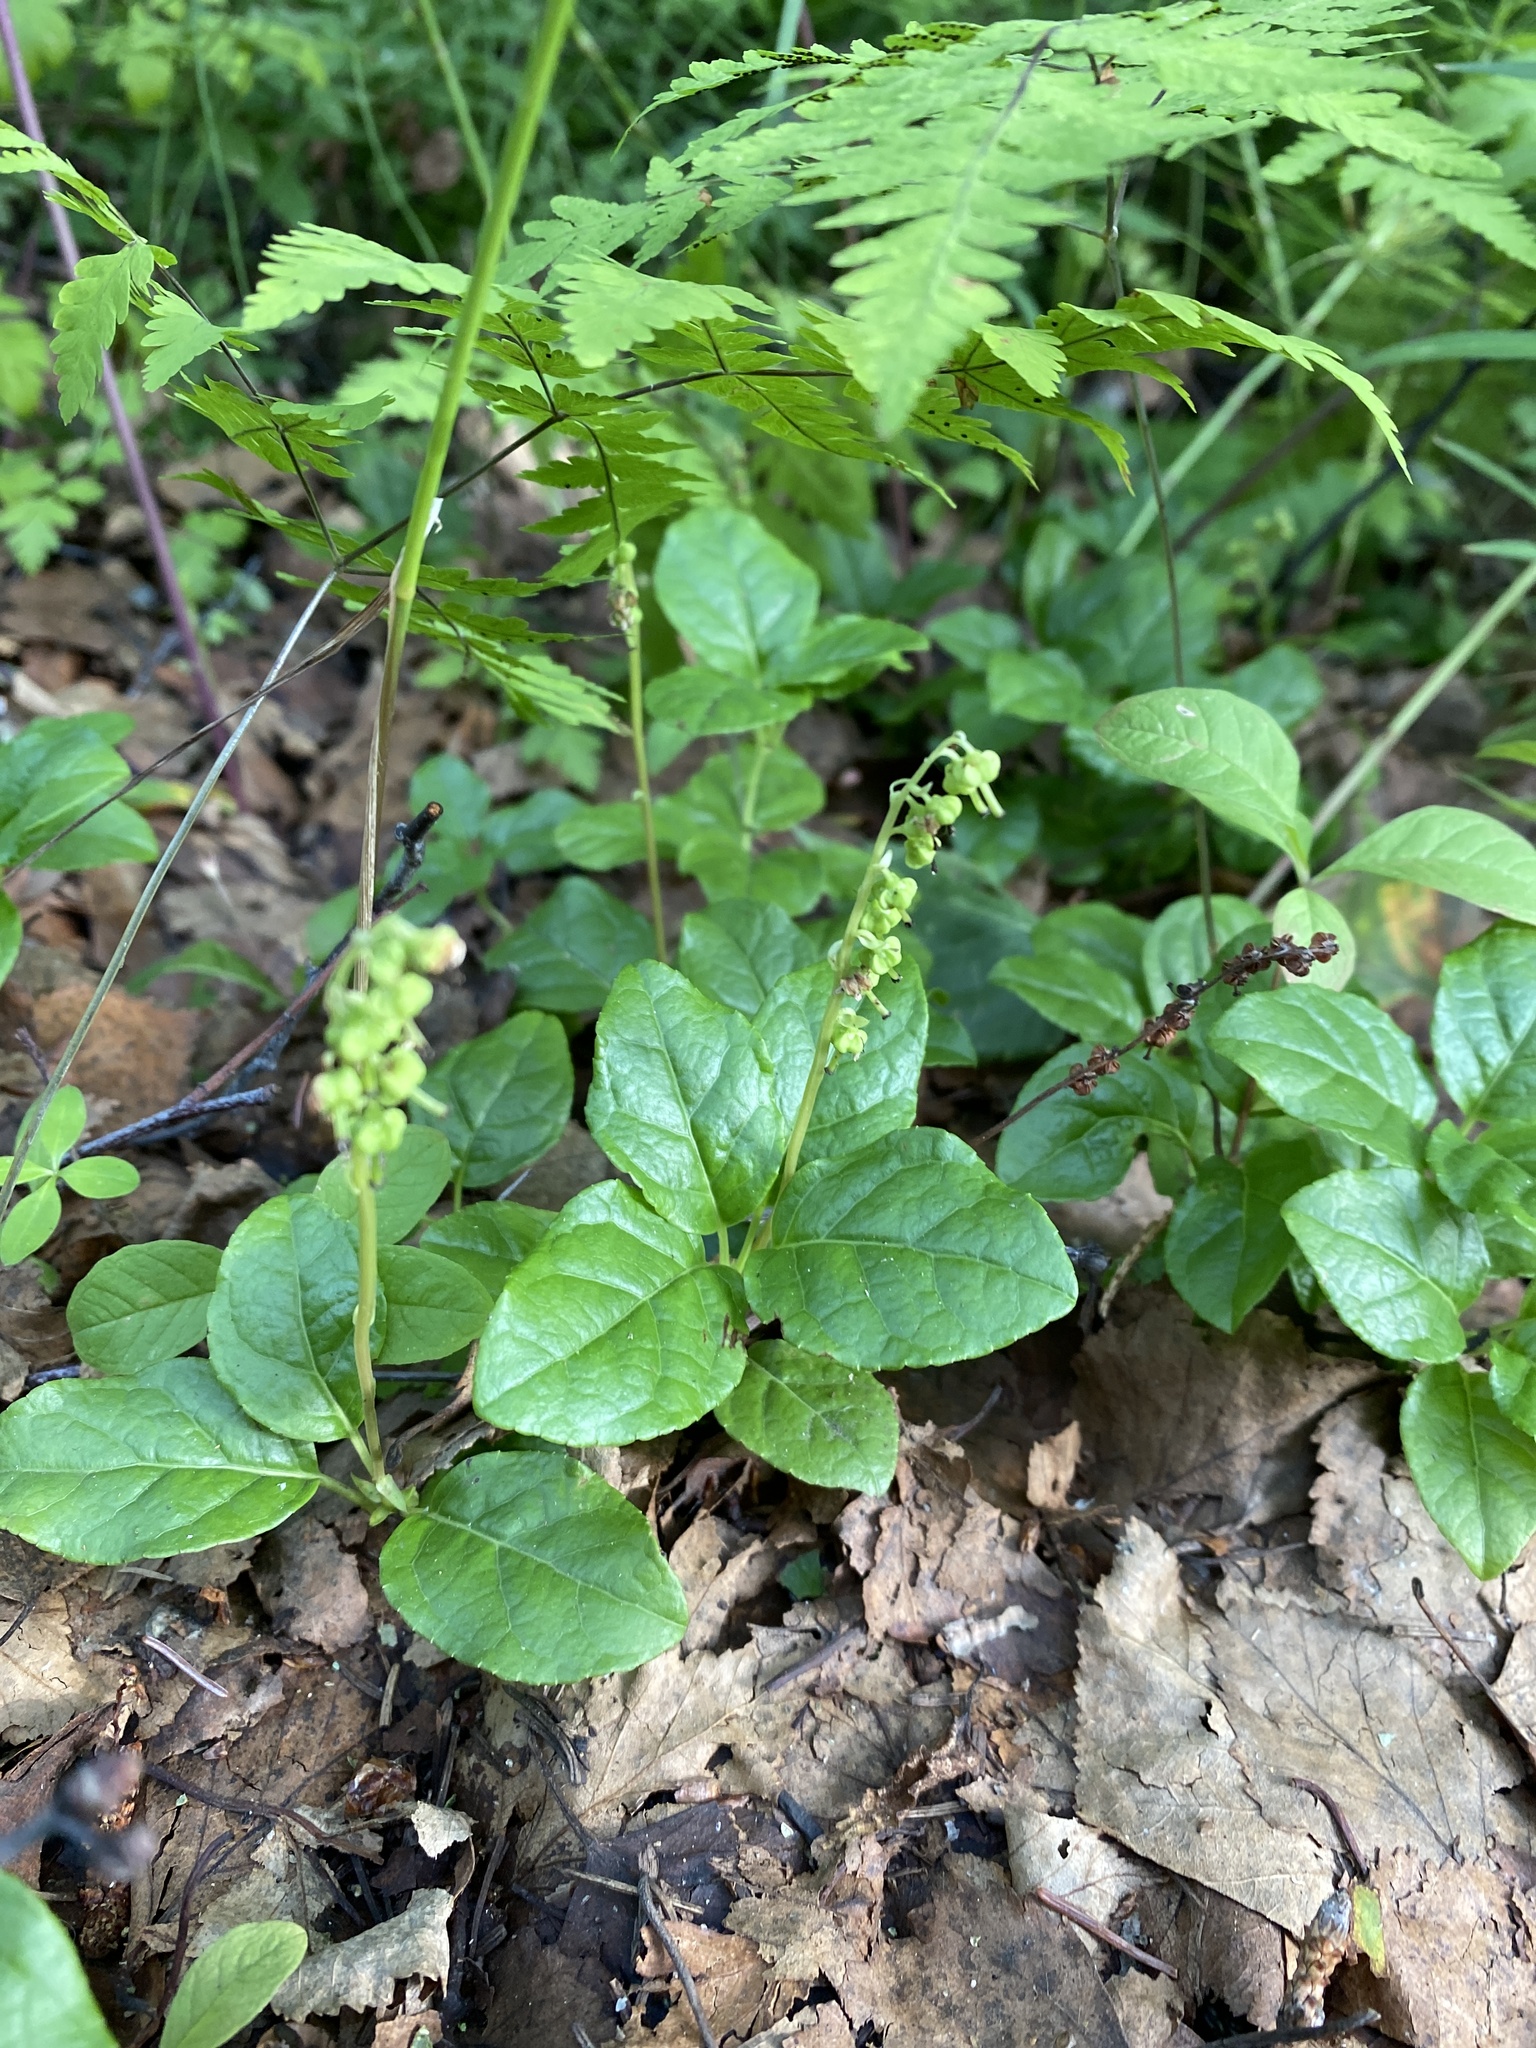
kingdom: Plantae
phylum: Tracheophyta
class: Magnoliopsida
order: Ericales
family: Ericaceae
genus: Orthilia
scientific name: Orthilia secunda
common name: One-sided orthilia
